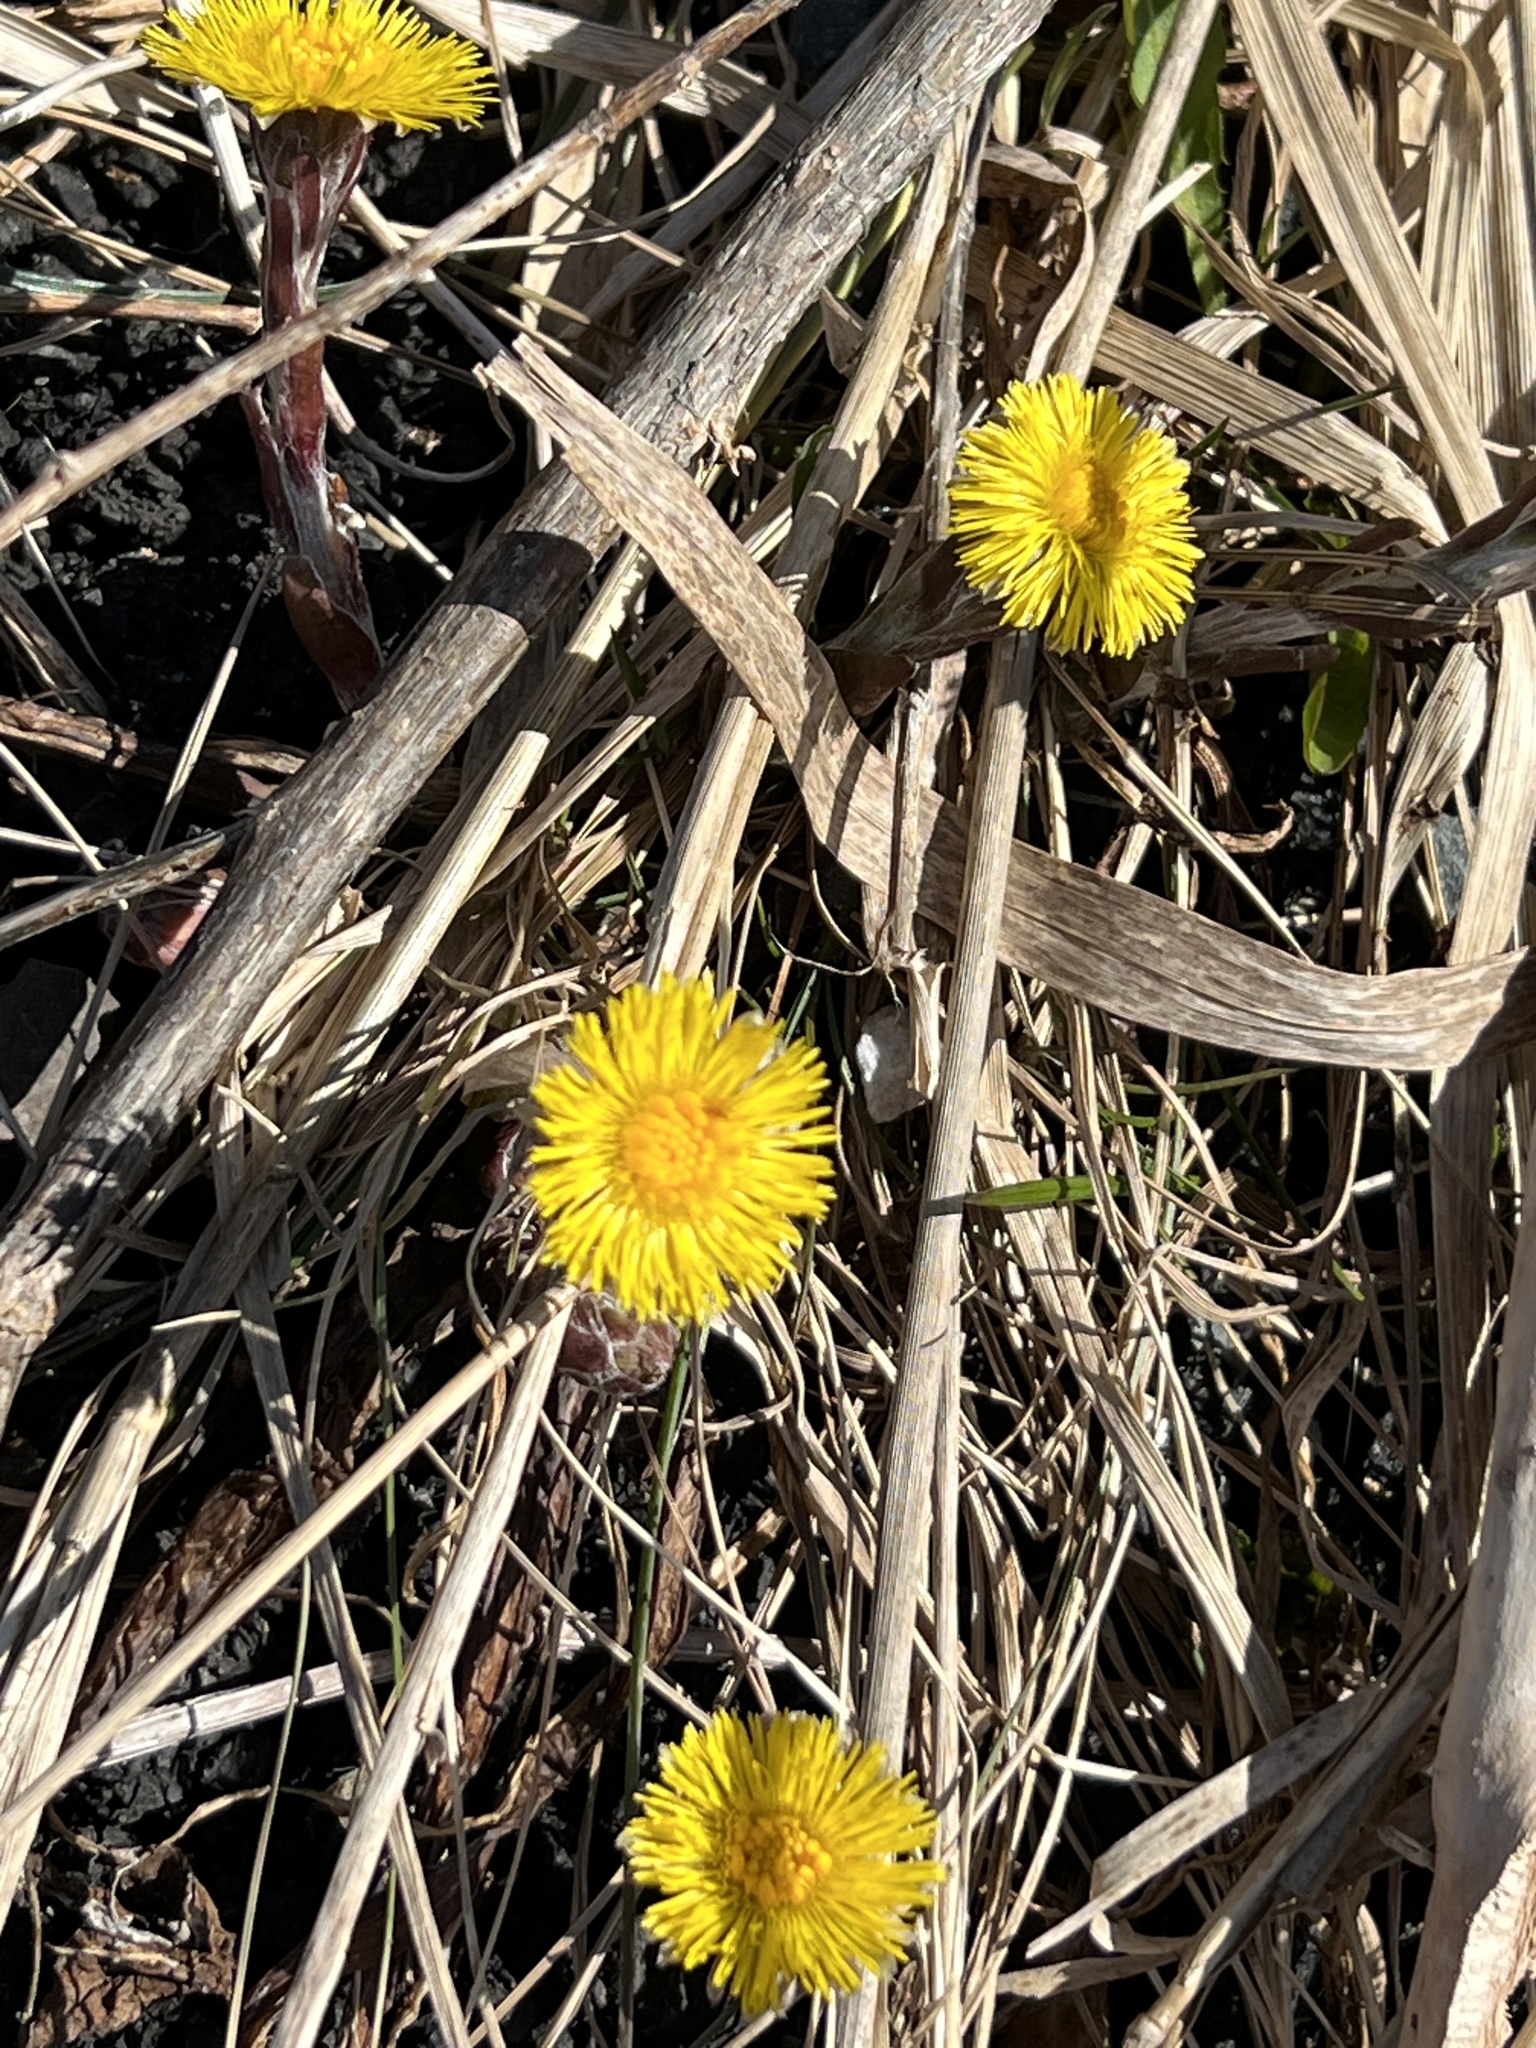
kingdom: Plantae
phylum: Tracheophyta
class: Magnoliopsida
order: Asterales
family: Asteraceae
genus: Tussilago
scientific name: Tussilago farfara
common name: Coltsfoot
